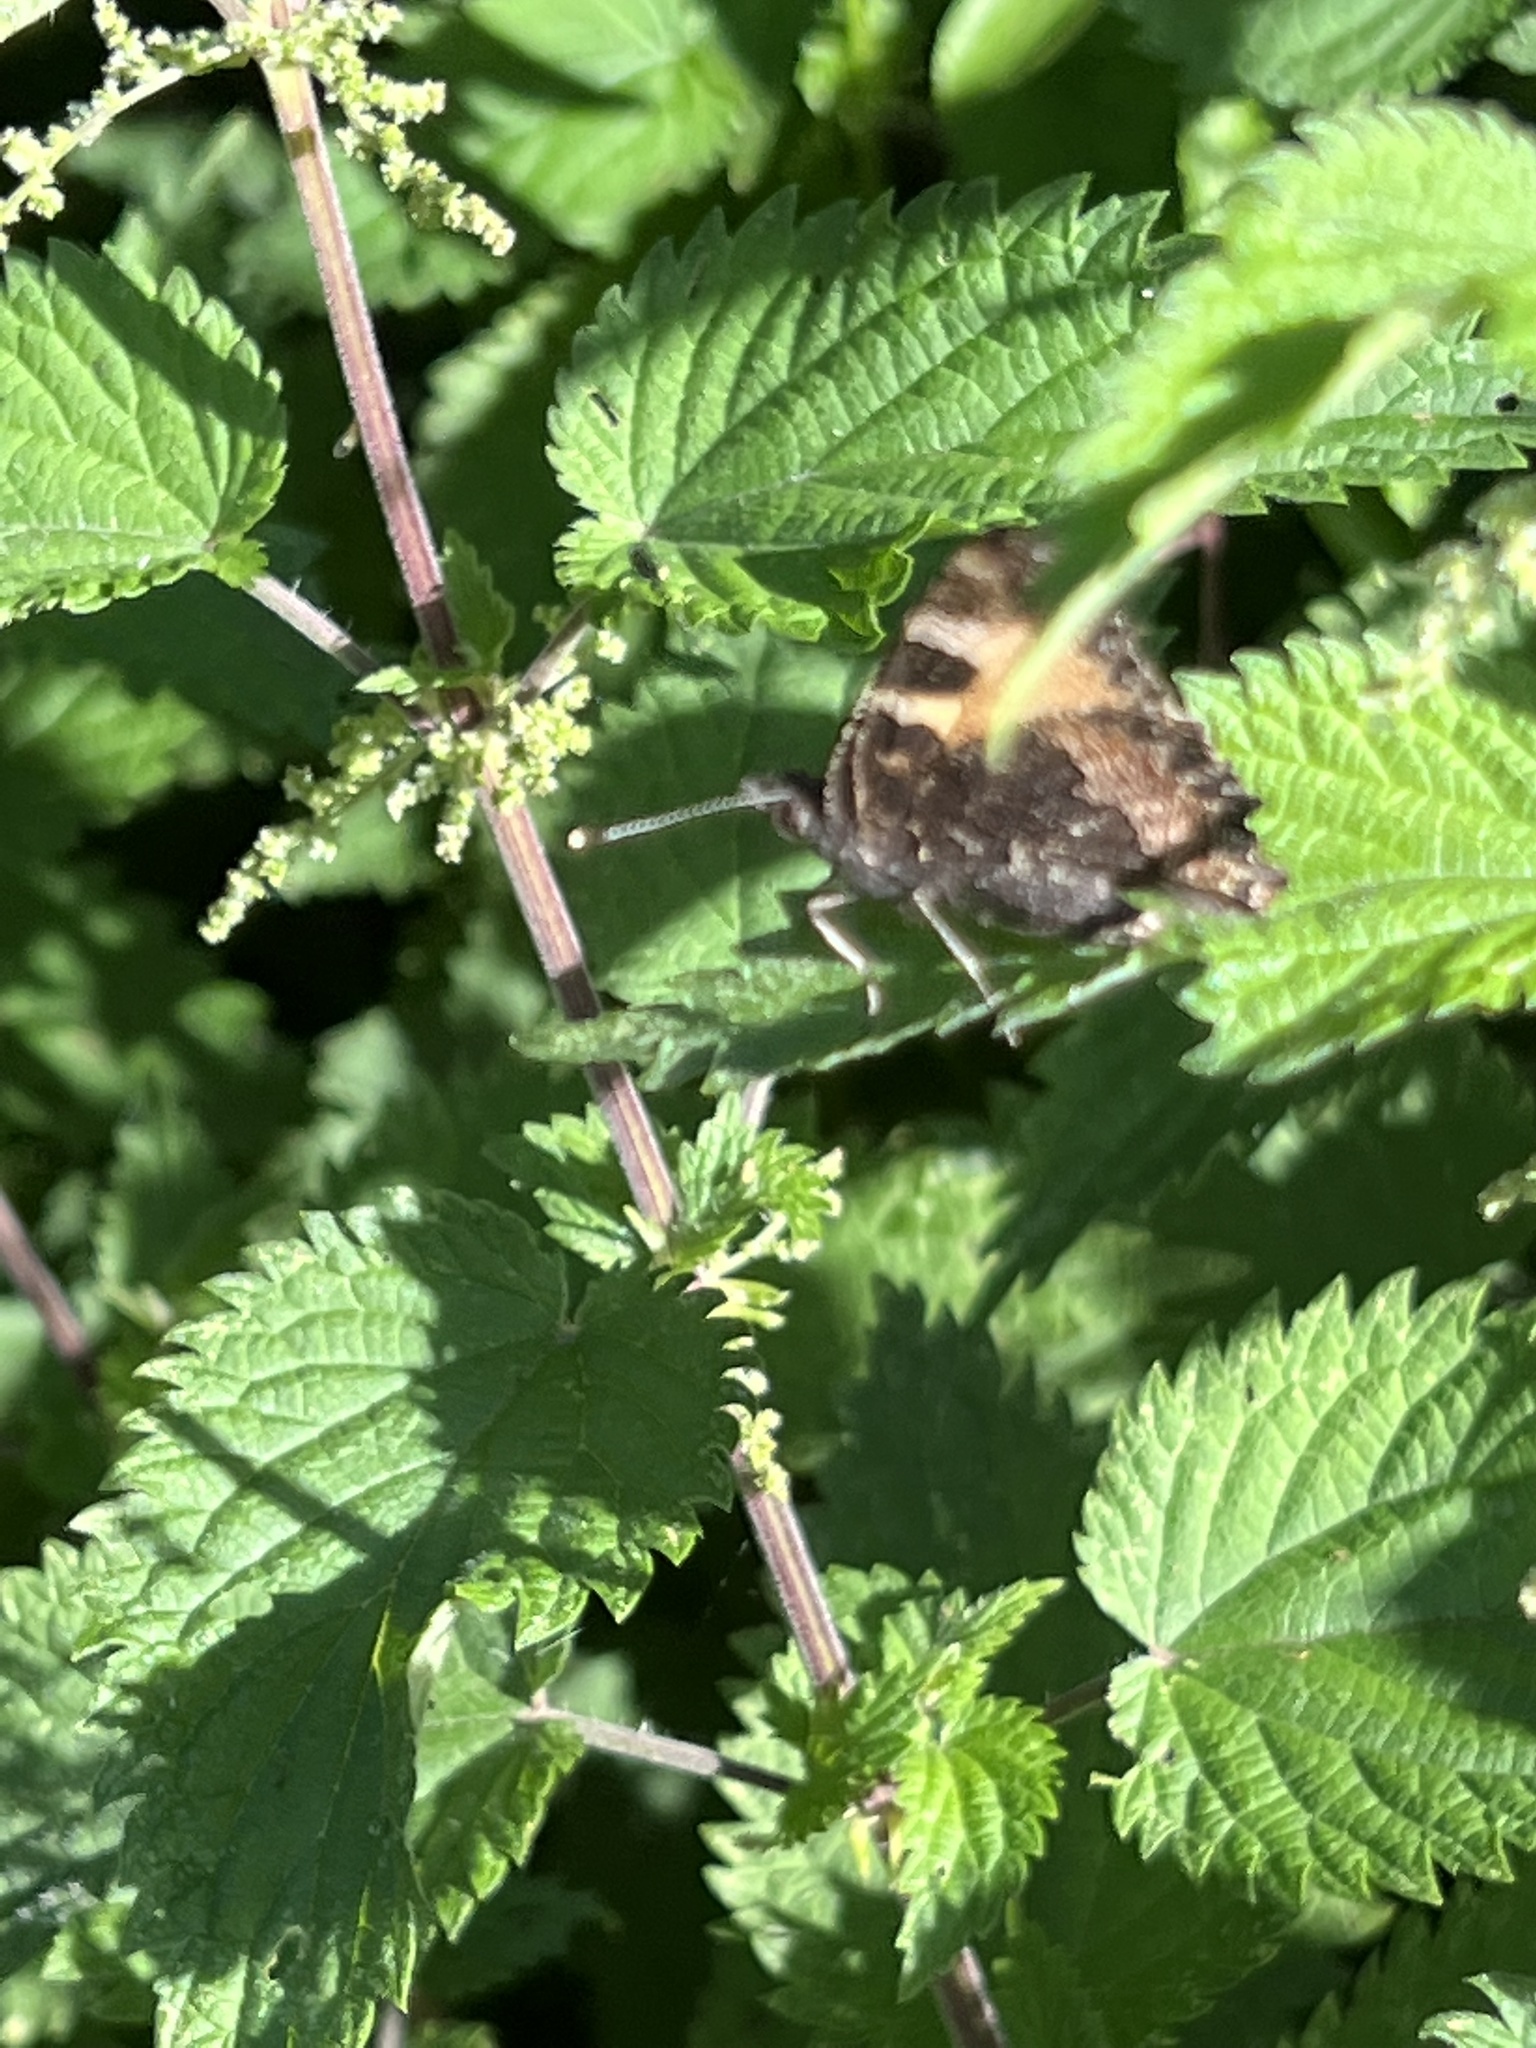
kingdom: Animalia
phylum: Arthropoda
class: Insecta
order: Lepidoptera
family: Nymphalidae
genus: Aglais
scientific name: Aglais urticae
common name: Small tortoiseshell
